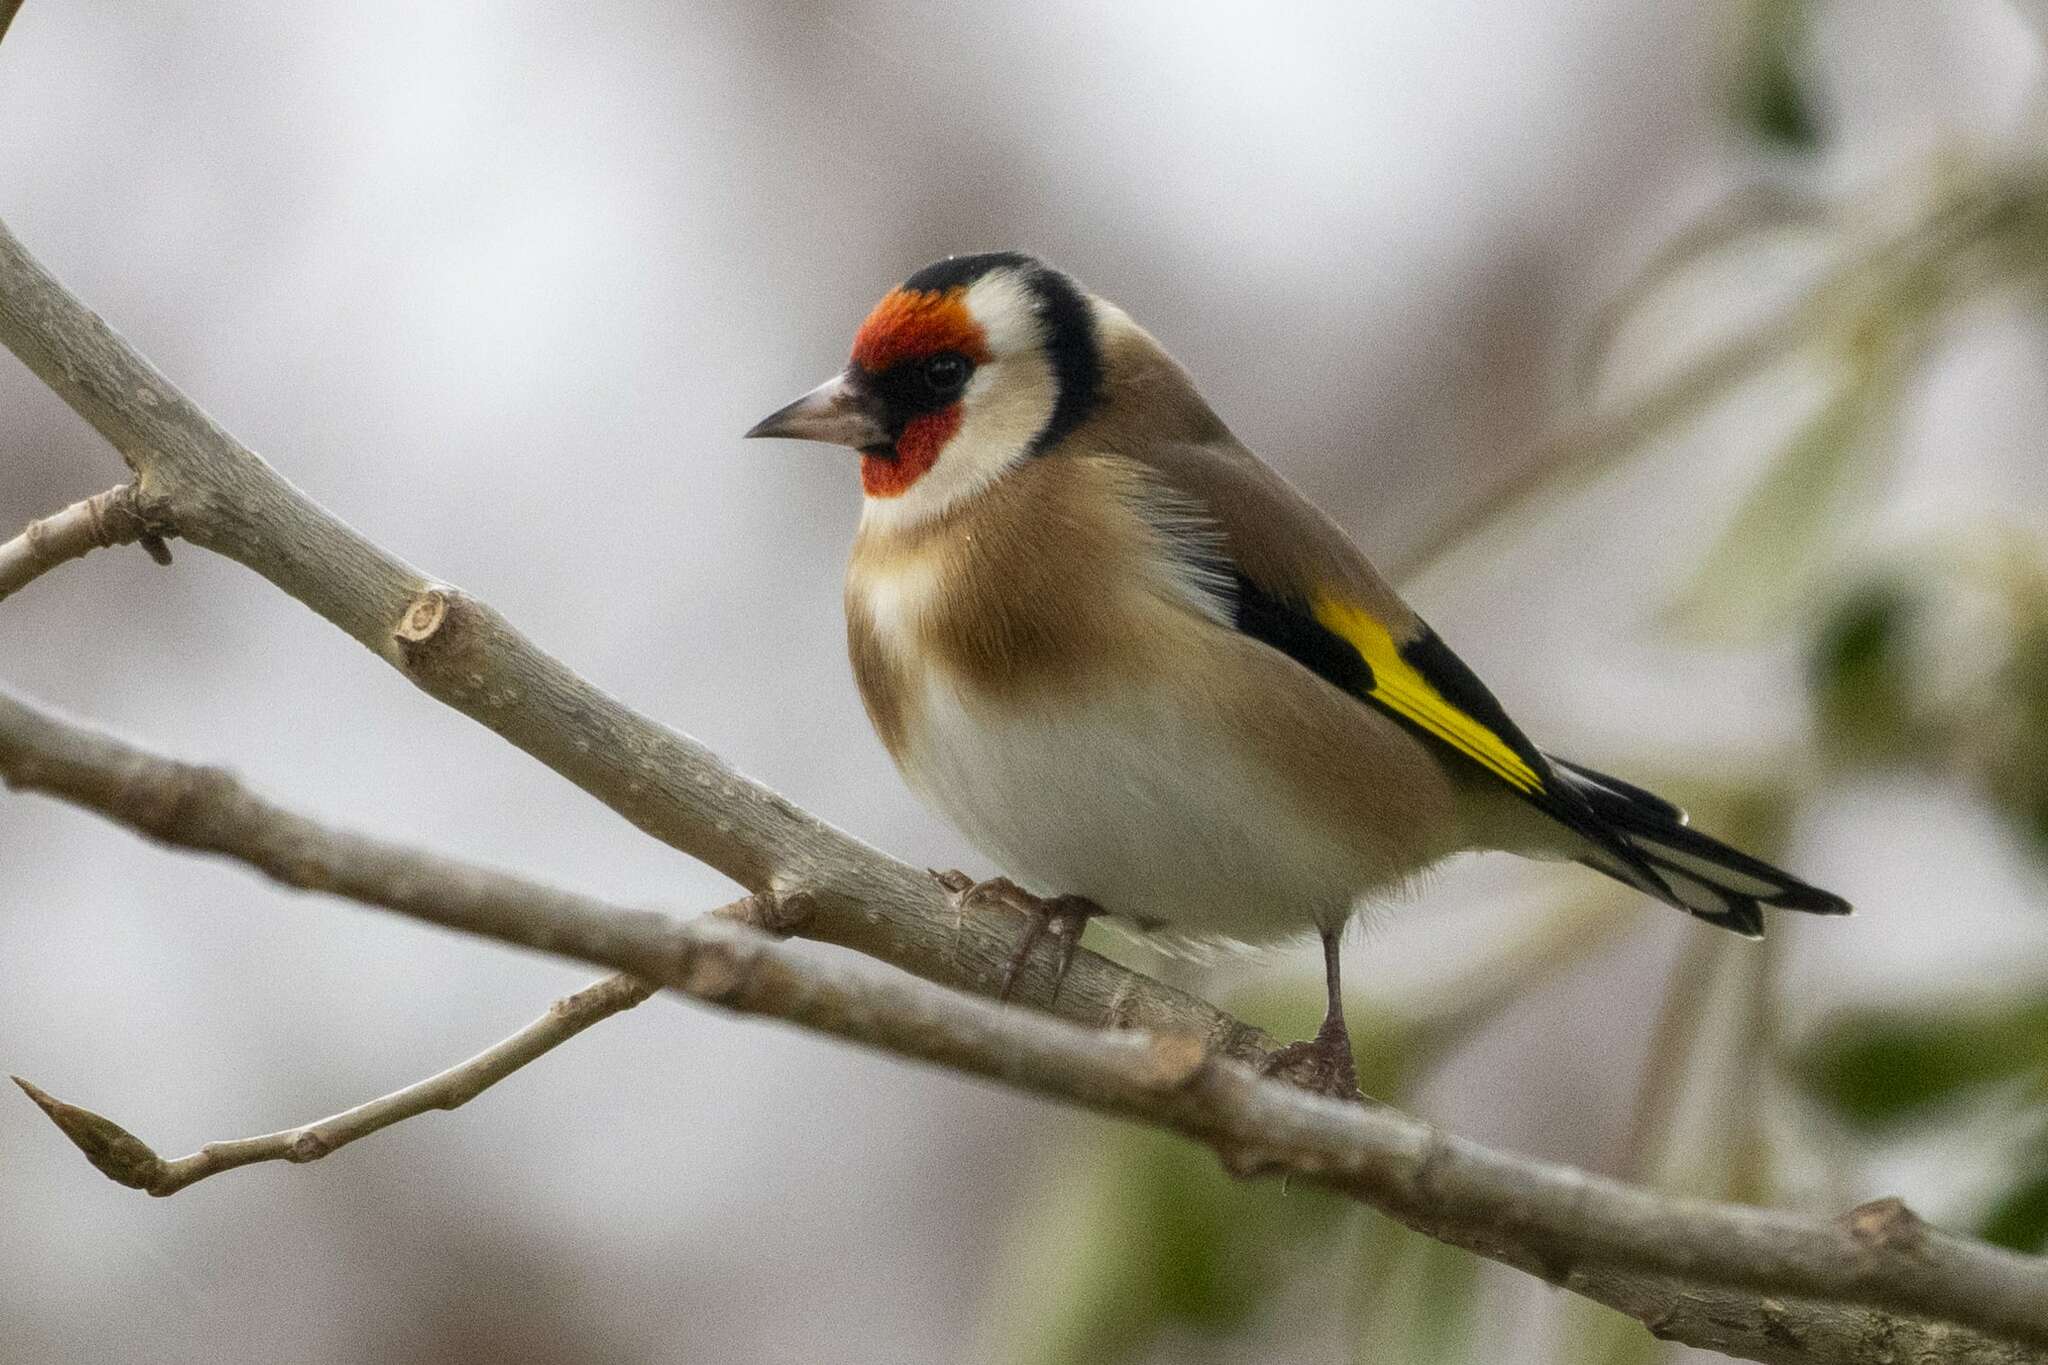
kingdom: Animalia
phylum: Chordata
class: Aves
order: Passeriformes
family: Fringillidae
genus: Carduelis
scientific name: Carduelis carduelis
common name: European goldfinch
